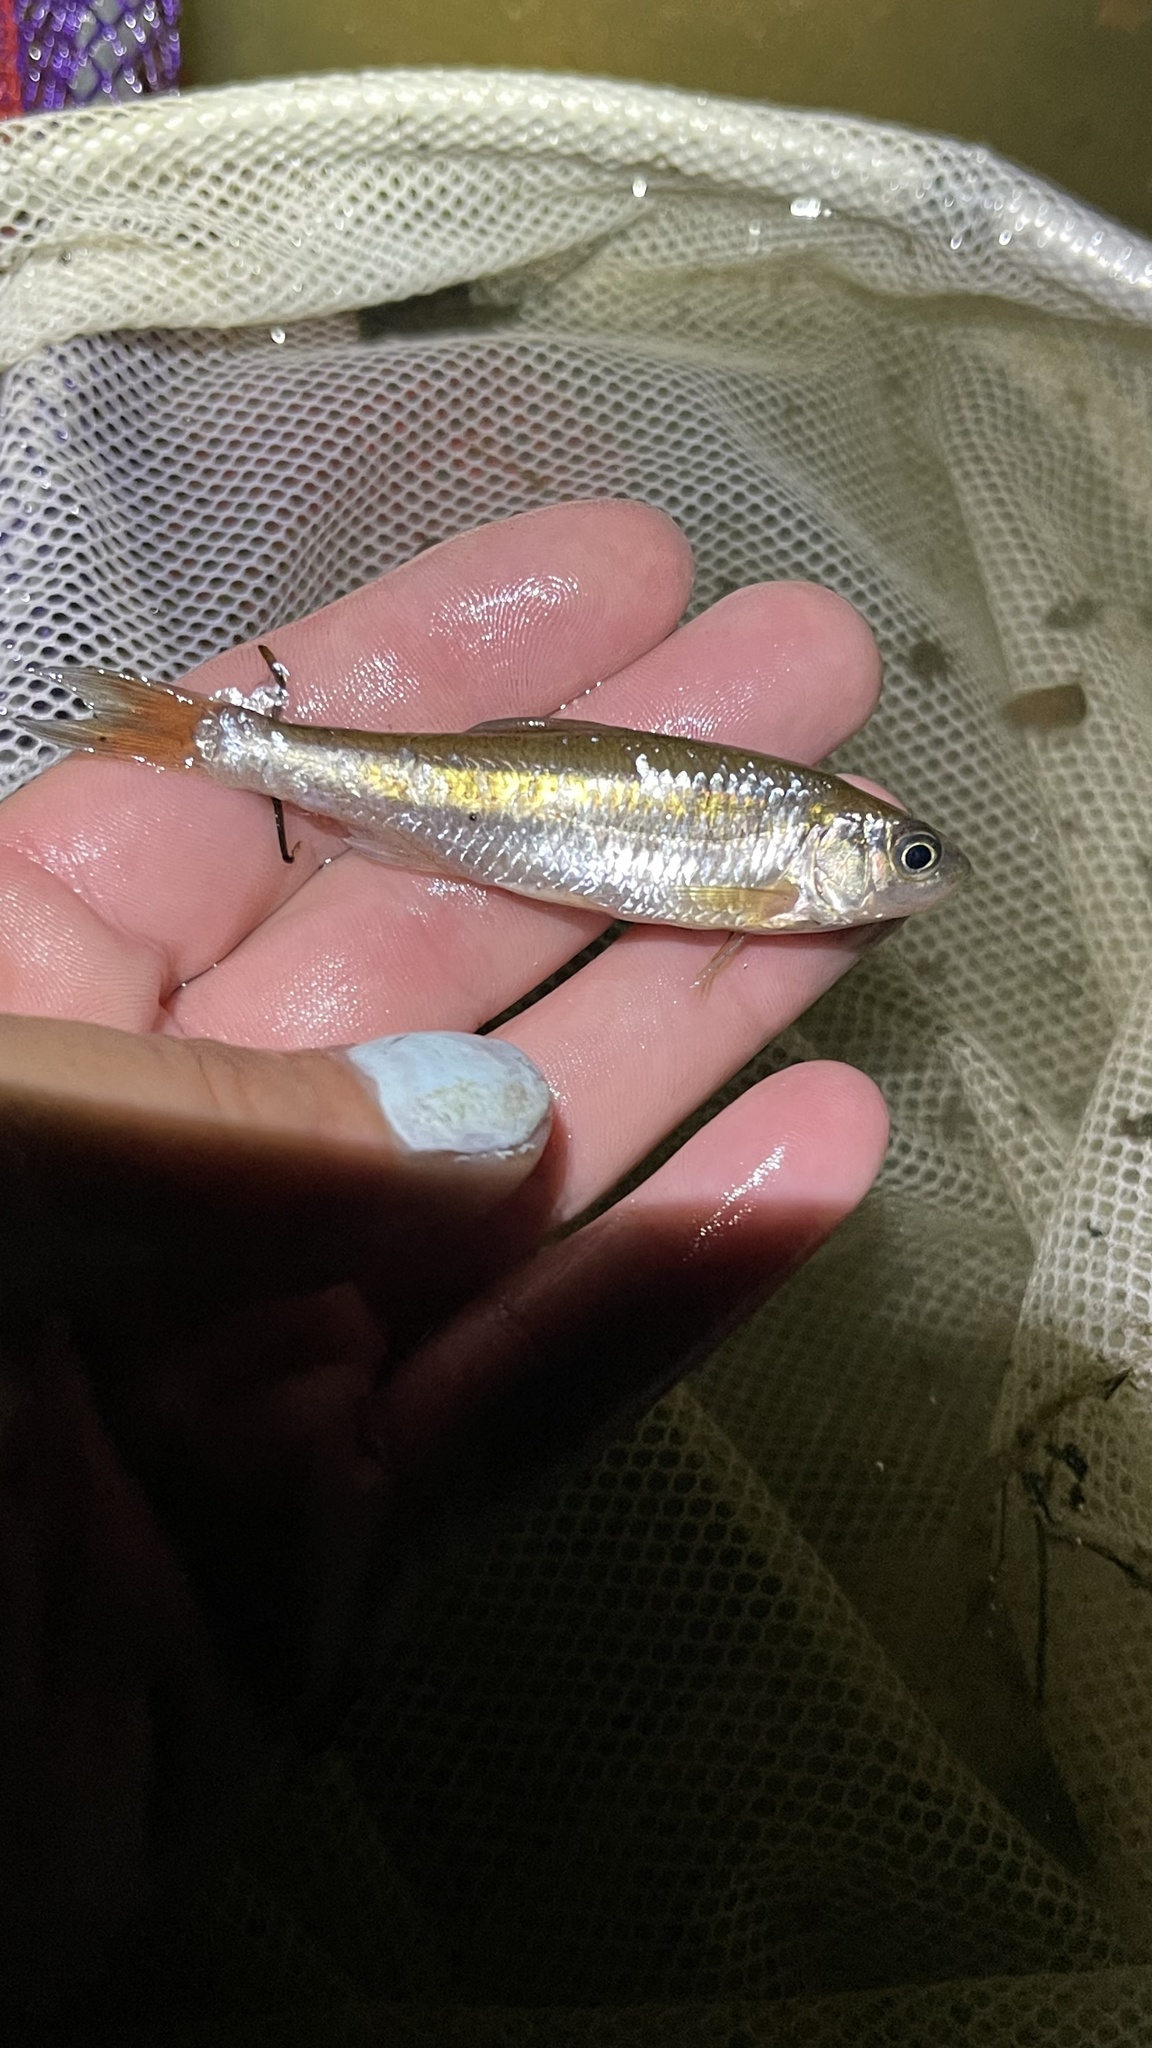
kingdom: Animalia
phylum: Chordata
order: Cypriniformes
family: Cyprinidae
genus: Luxilus
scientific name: Luxilus cornutus
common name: Common shiner
